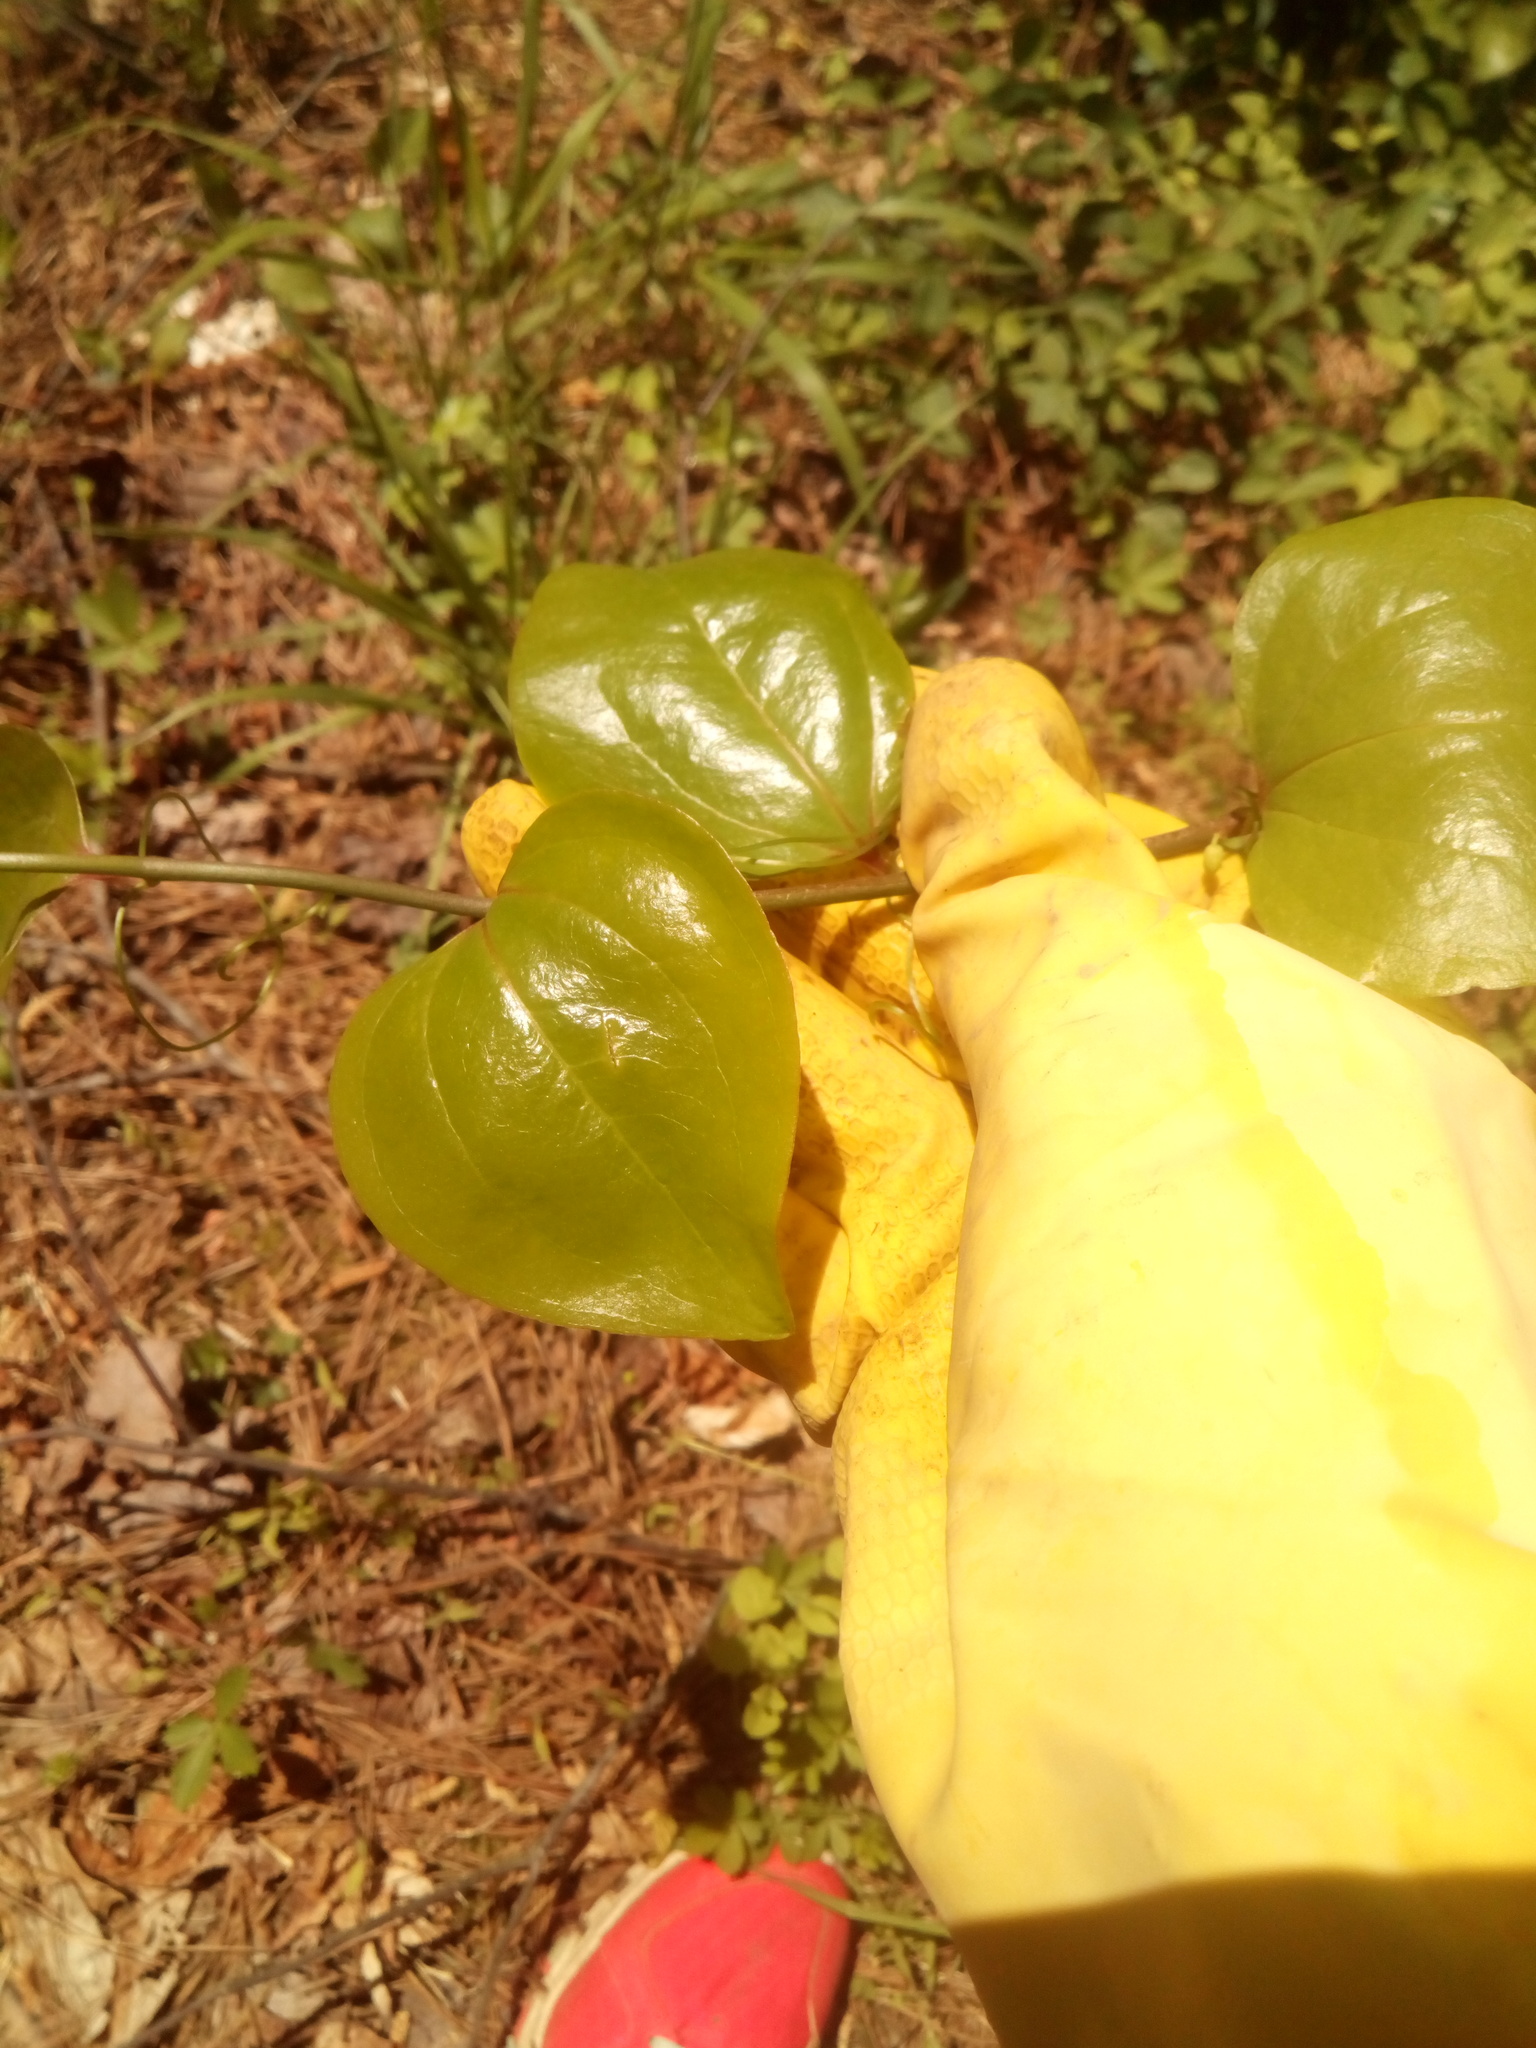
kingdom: Plantae
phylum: Tracheophyta
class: Liliopsida
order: Liliales
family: Smilacaceae
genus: Smilax
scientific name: Smilax rotundifolia
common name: Bullbriar
